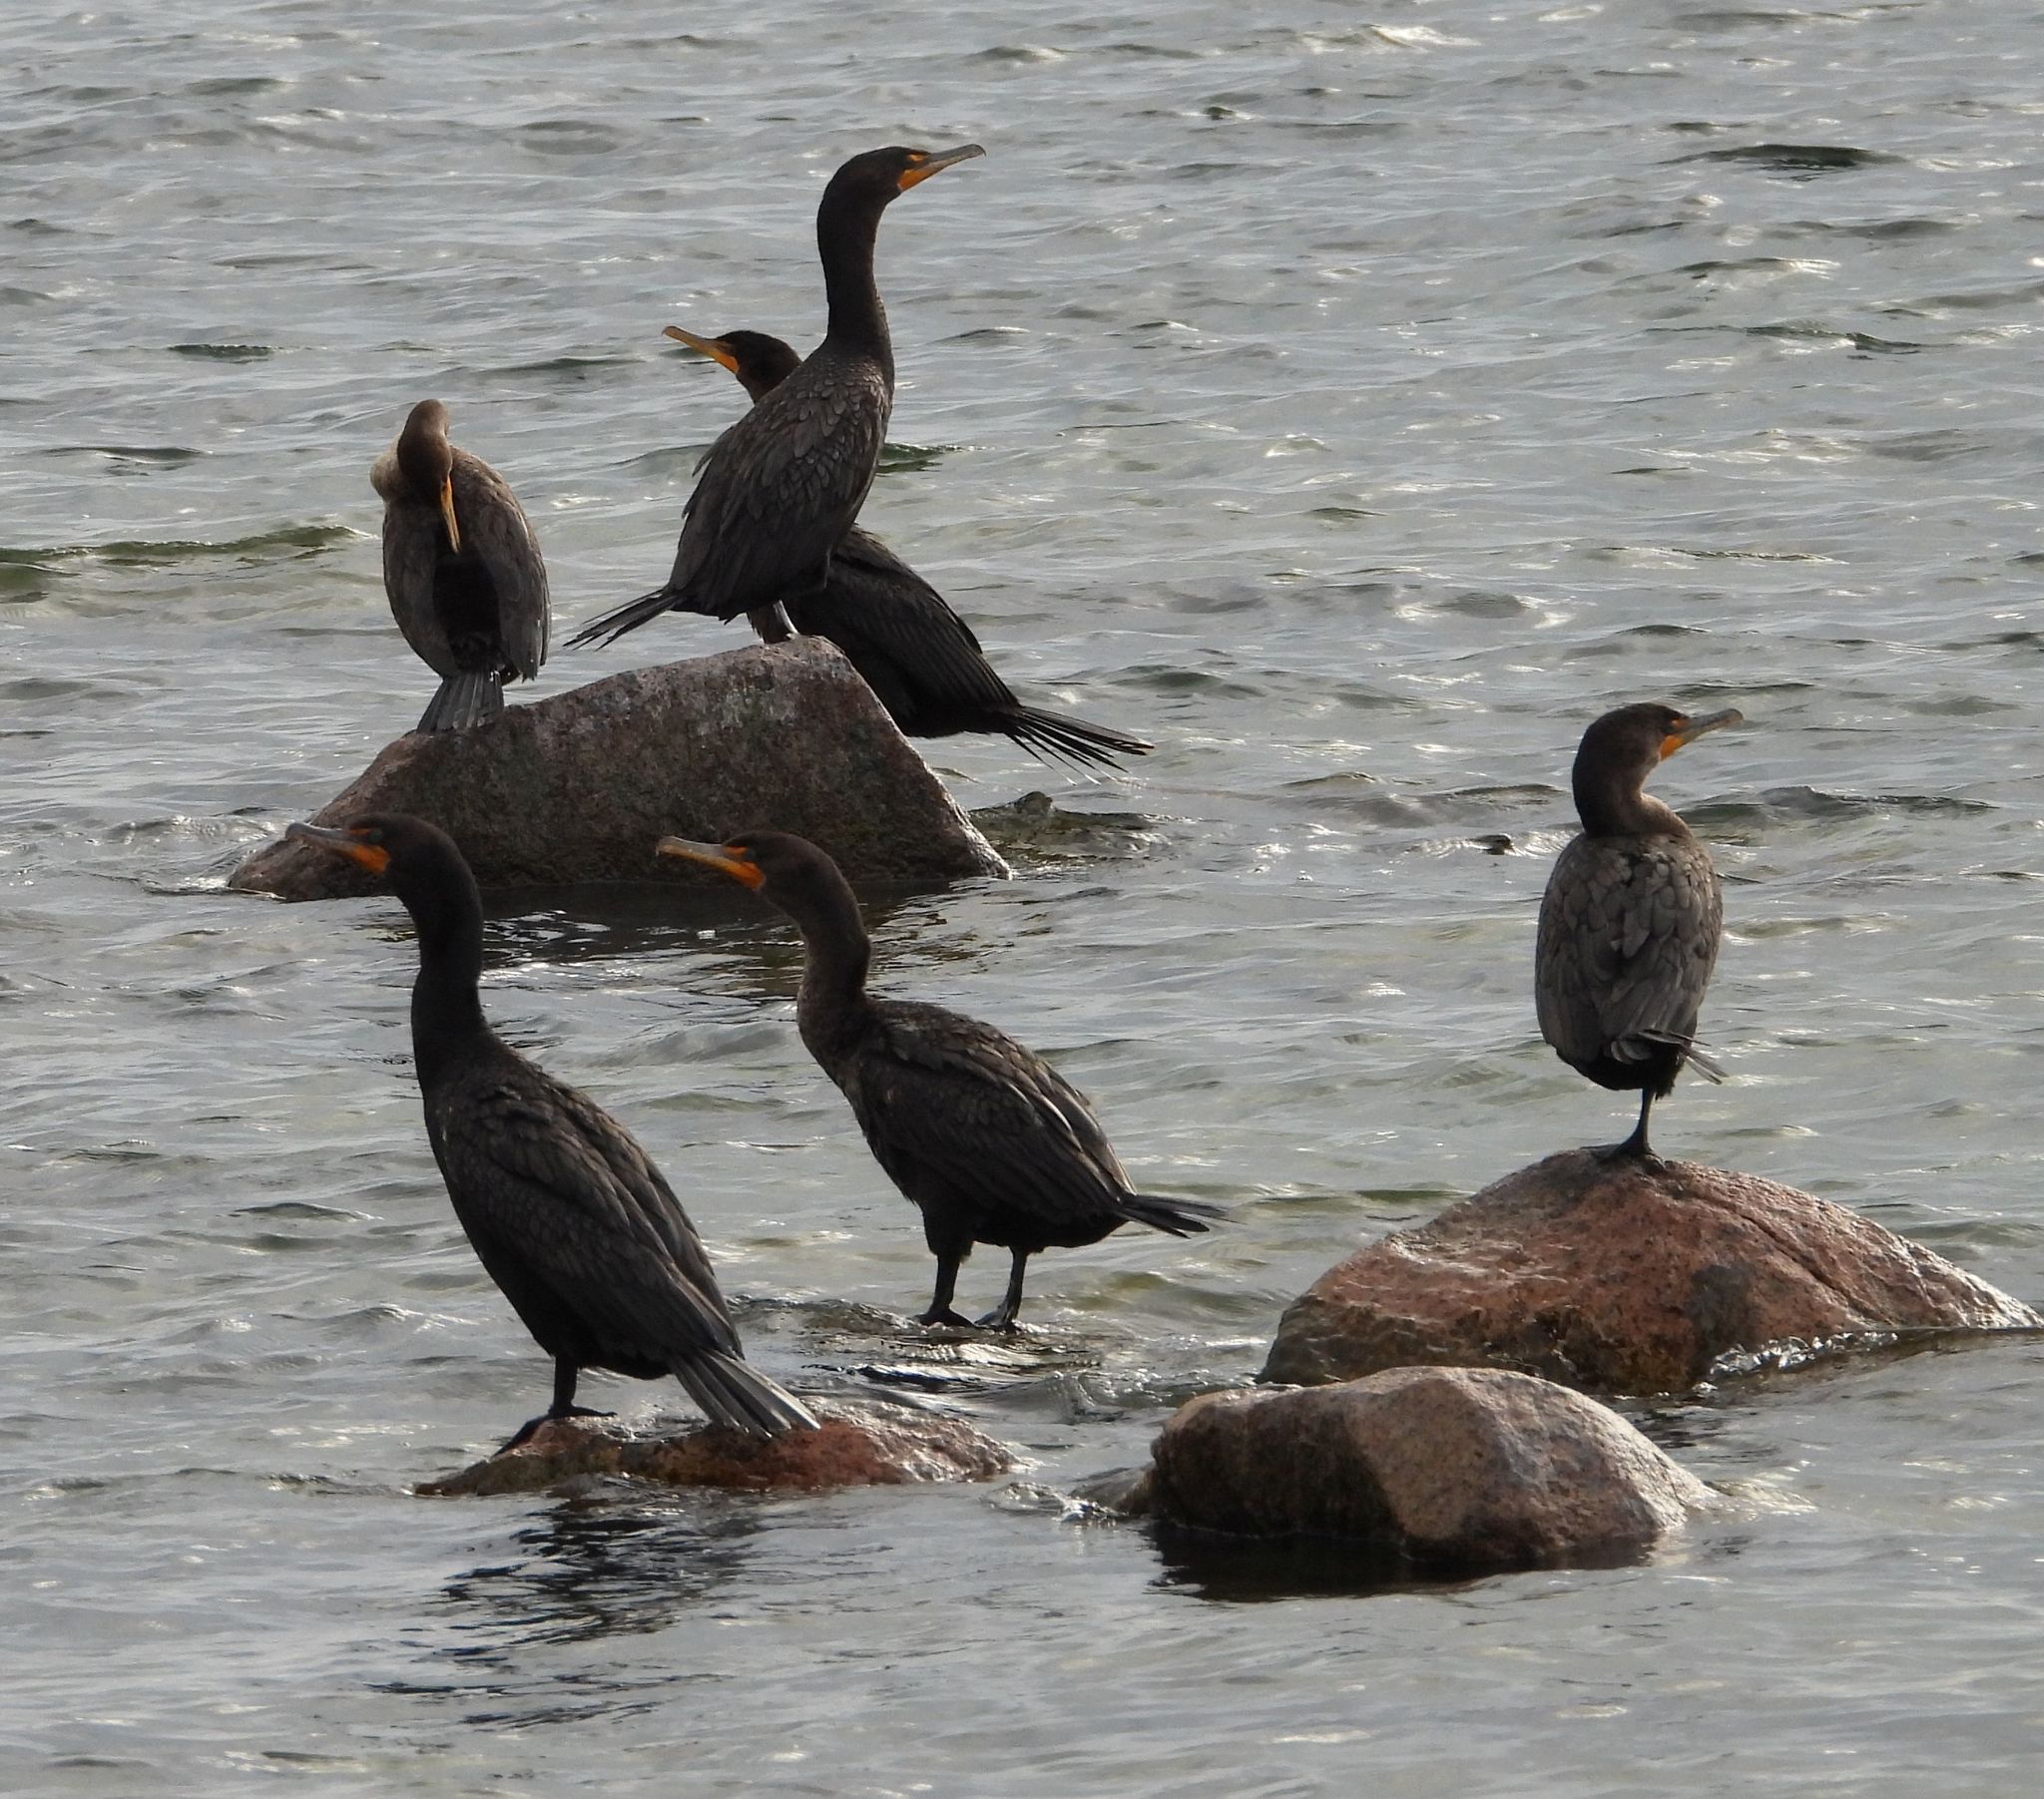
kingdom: Animalia
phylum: Chordata
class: Aves
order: Suliformes
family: Phalacrocoracidae
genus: Phalacrocorax
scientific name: Phalacrocorax auritus
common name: Double-crested cormorant
